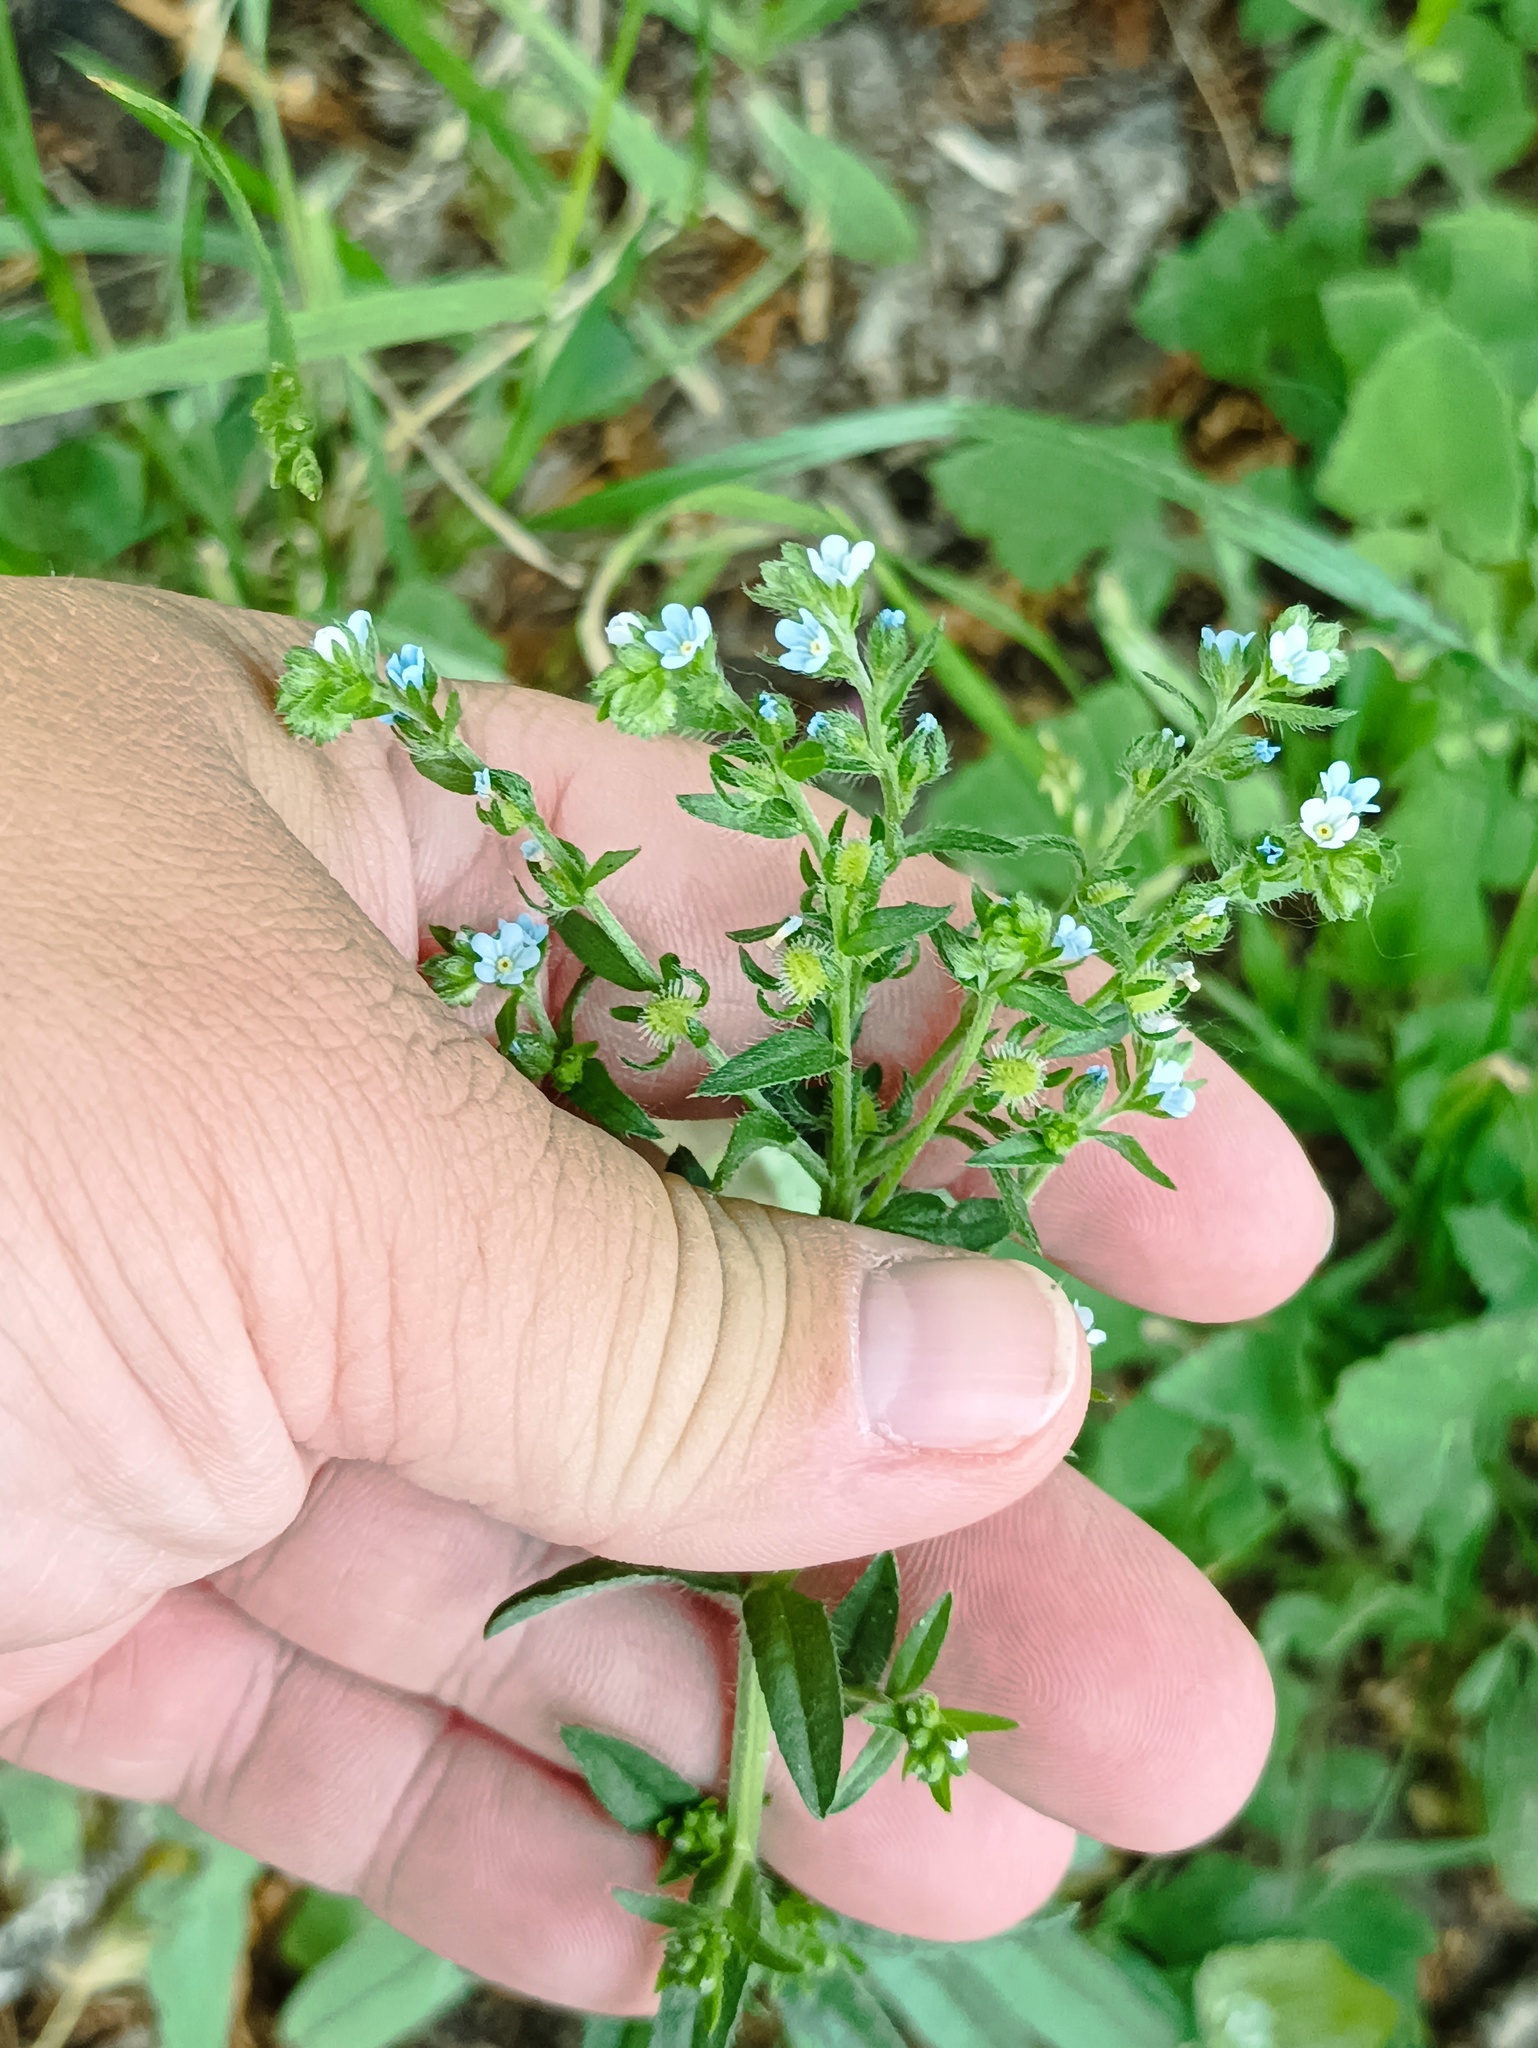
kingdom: Plantae
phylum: Tracheophyta
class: Magnoliopsida
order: Boraginales
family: Boraginaceae
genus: Lappula
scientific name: Lappula squarrosa
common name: European stickseed
